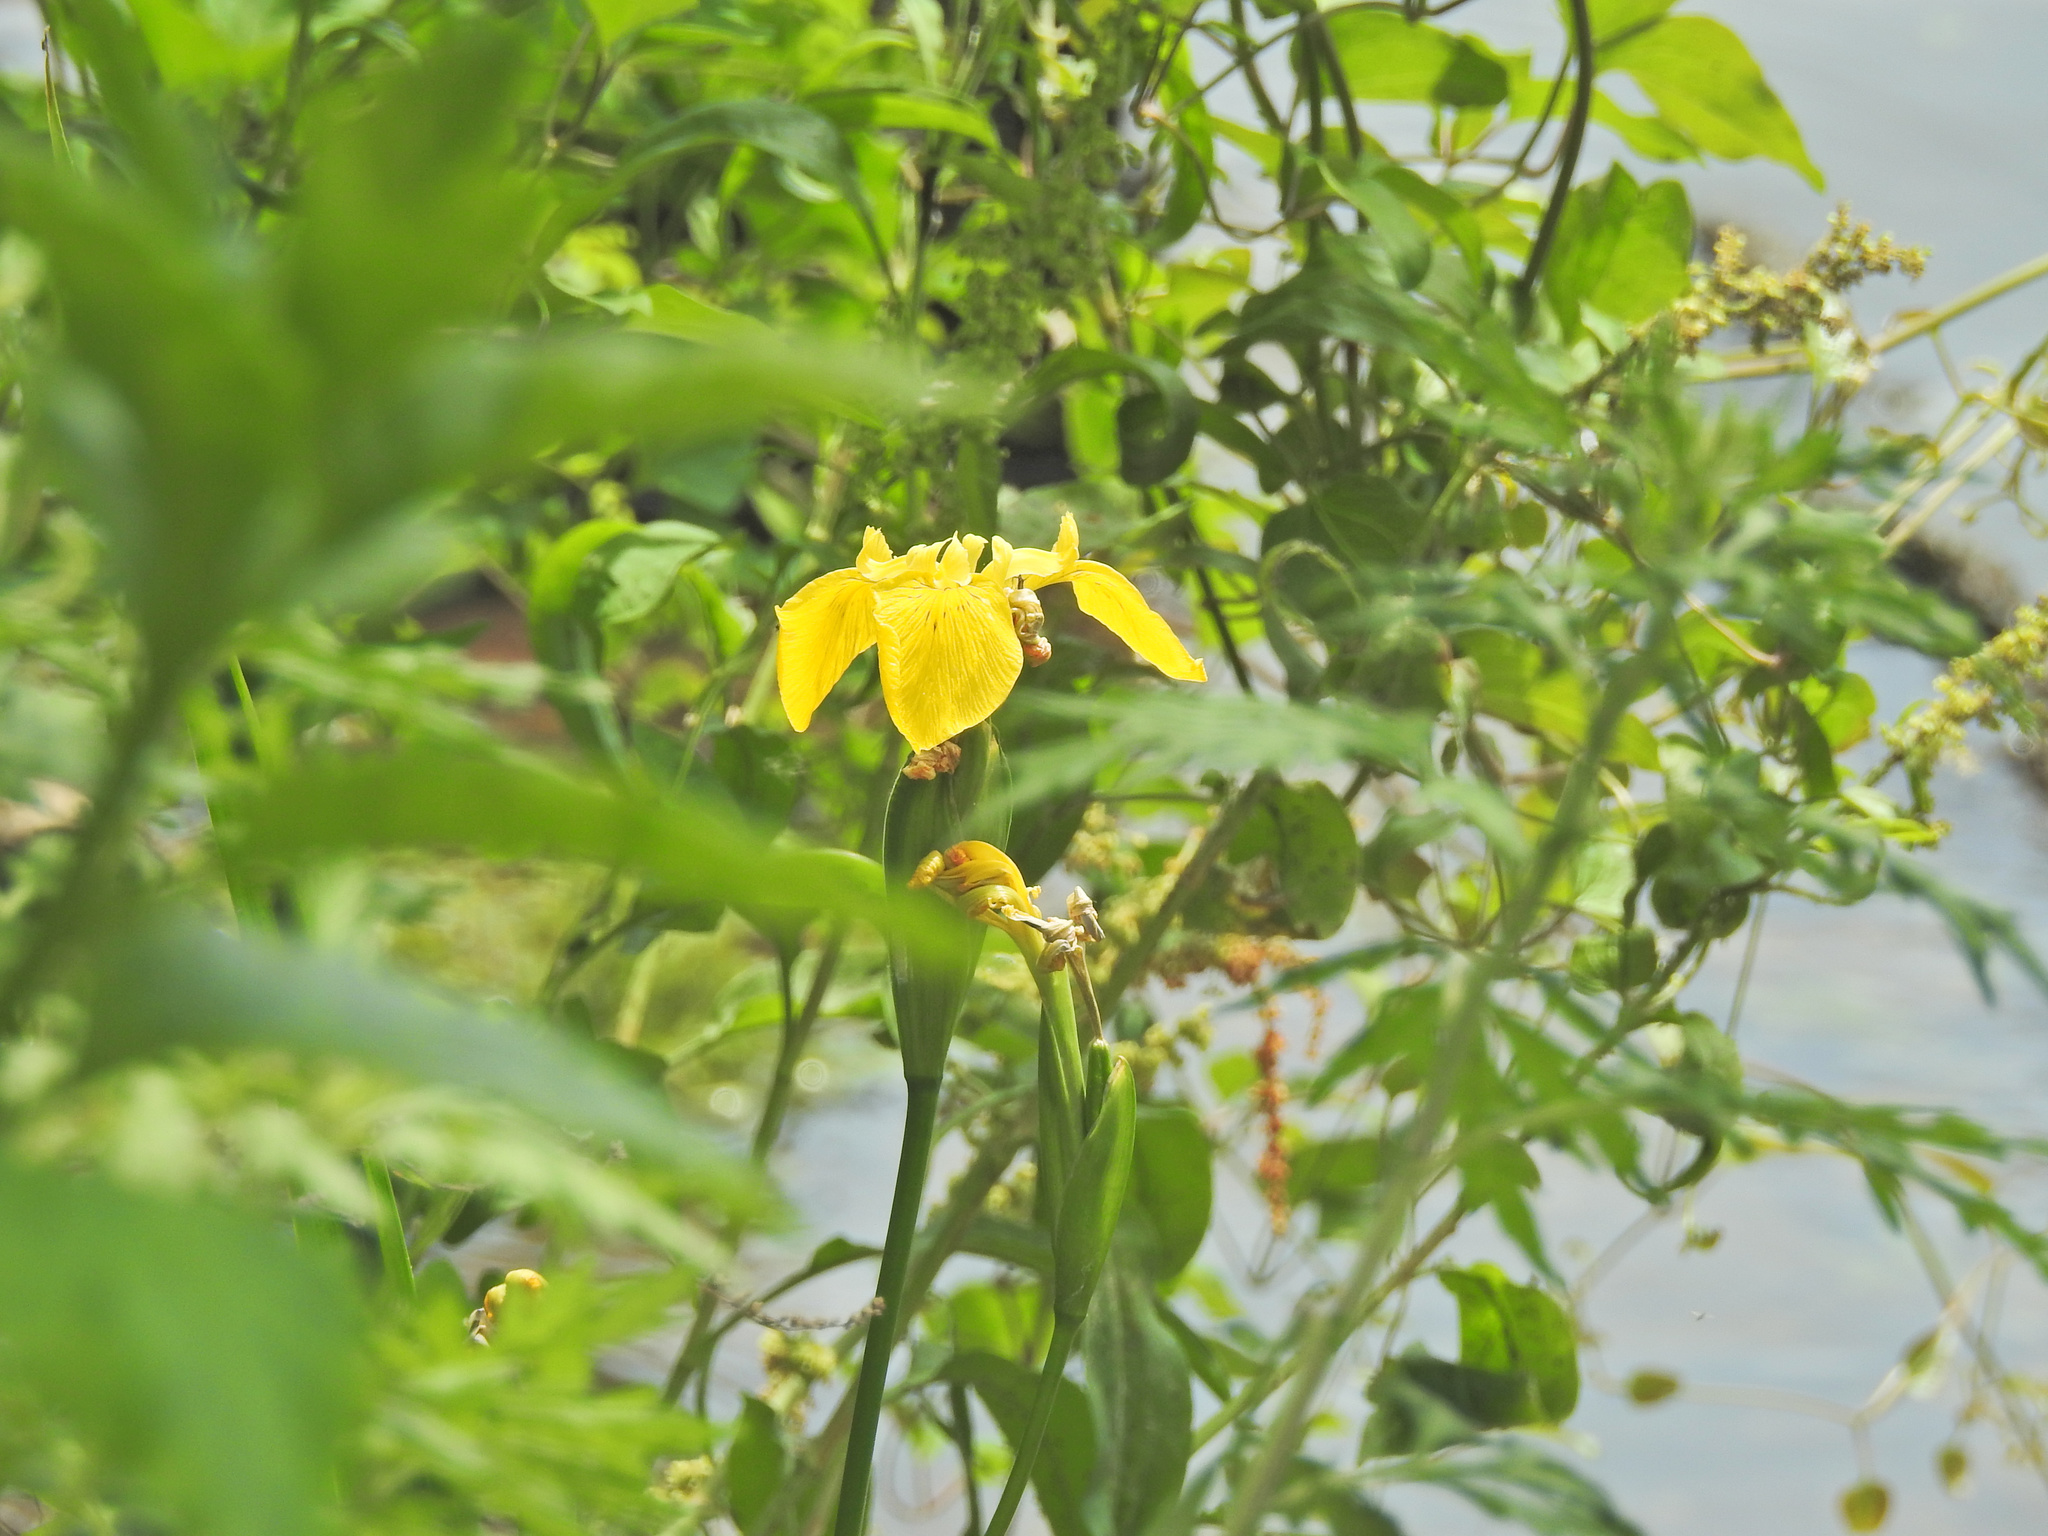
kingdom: Plantae
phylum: Tracheophyta
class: Liliopsida
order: Asparagales
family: Iridaceae
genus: Iris
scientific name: Iris pseudacorus
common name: Yellow flag
